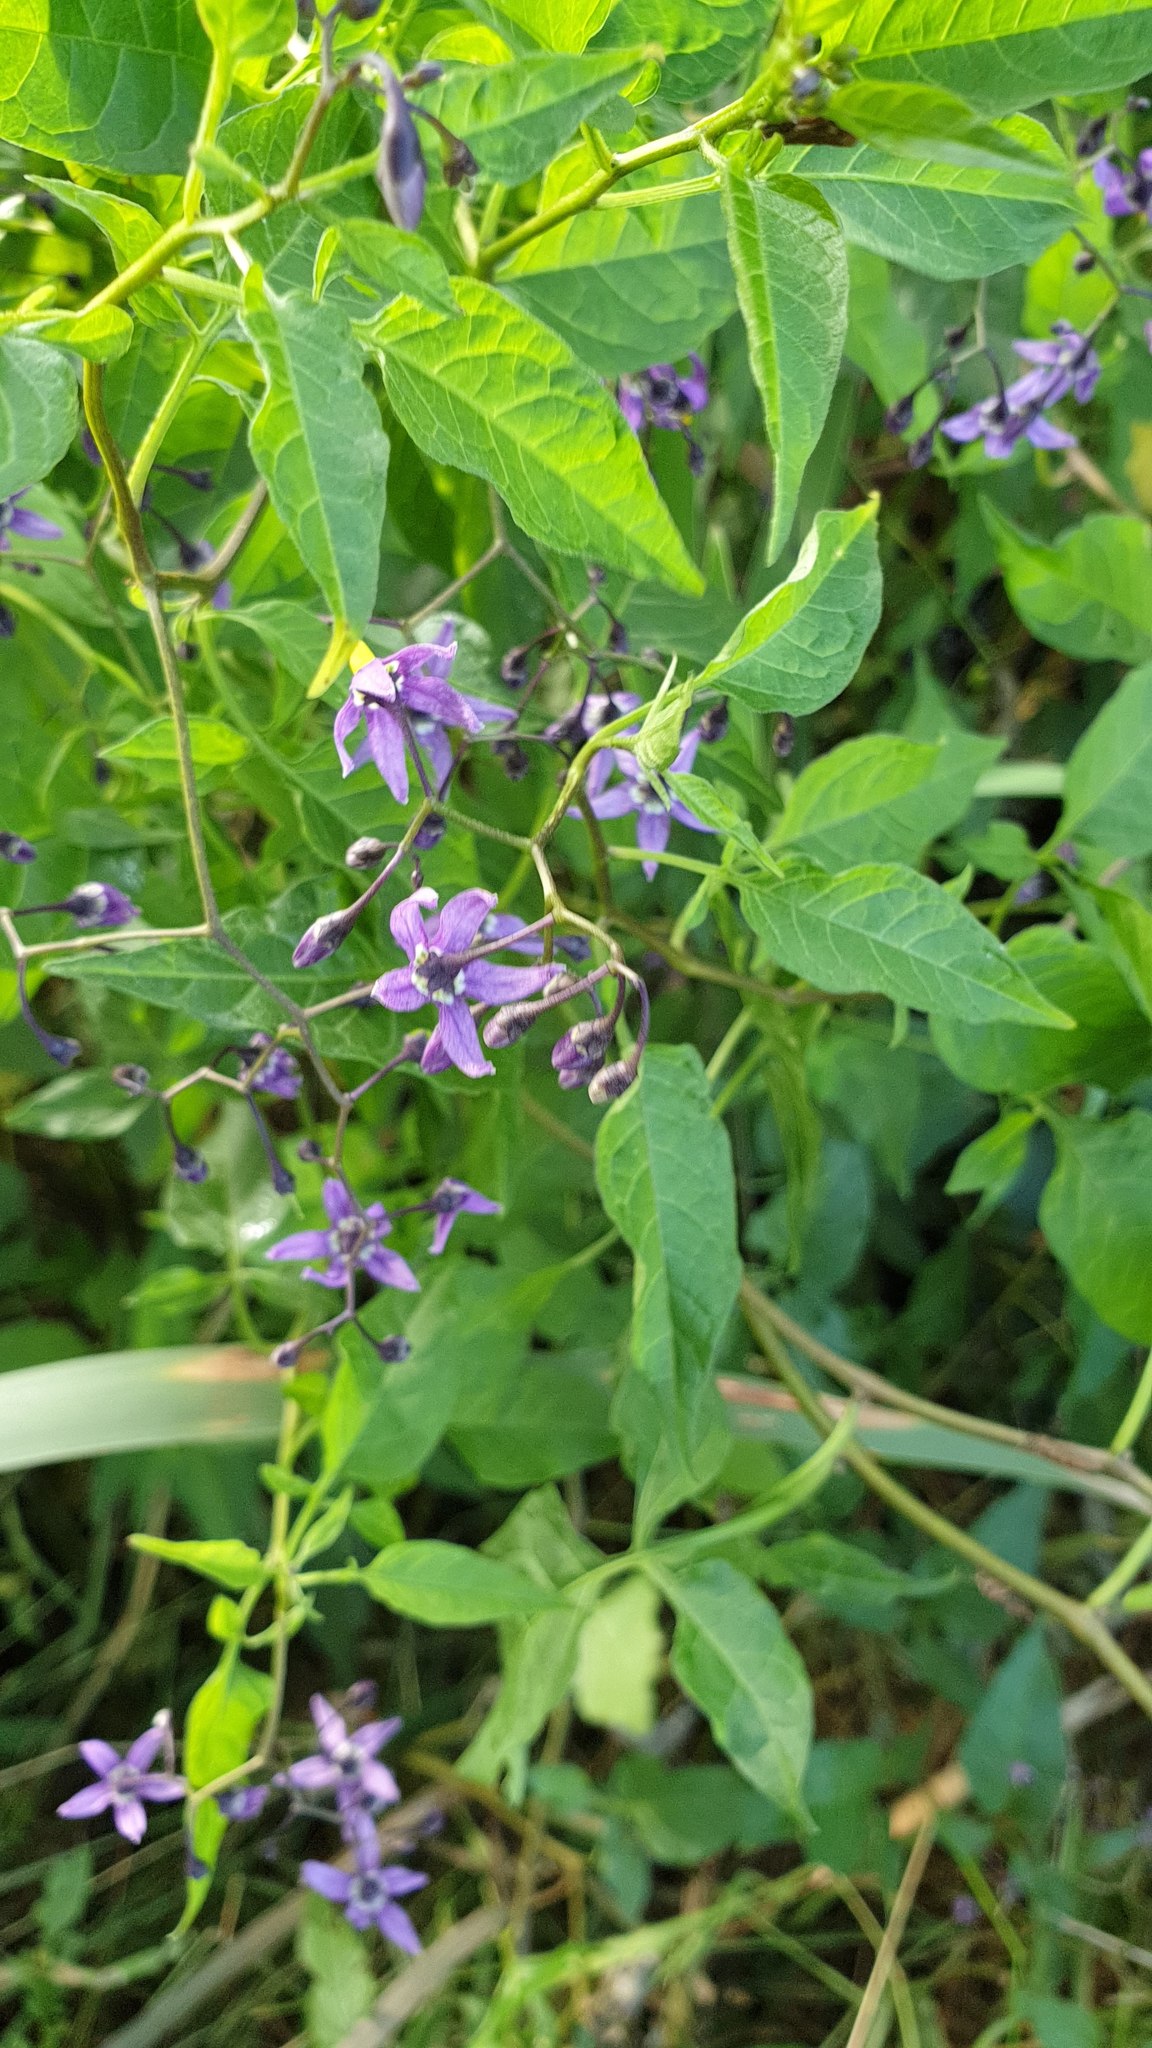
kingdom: Plantae
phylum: Tracheophyta
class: Magnoliopsida
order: Solanales
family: Solanaceae
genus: Solanum
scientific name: Solanum dulcamara
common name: Climbing nightshade
